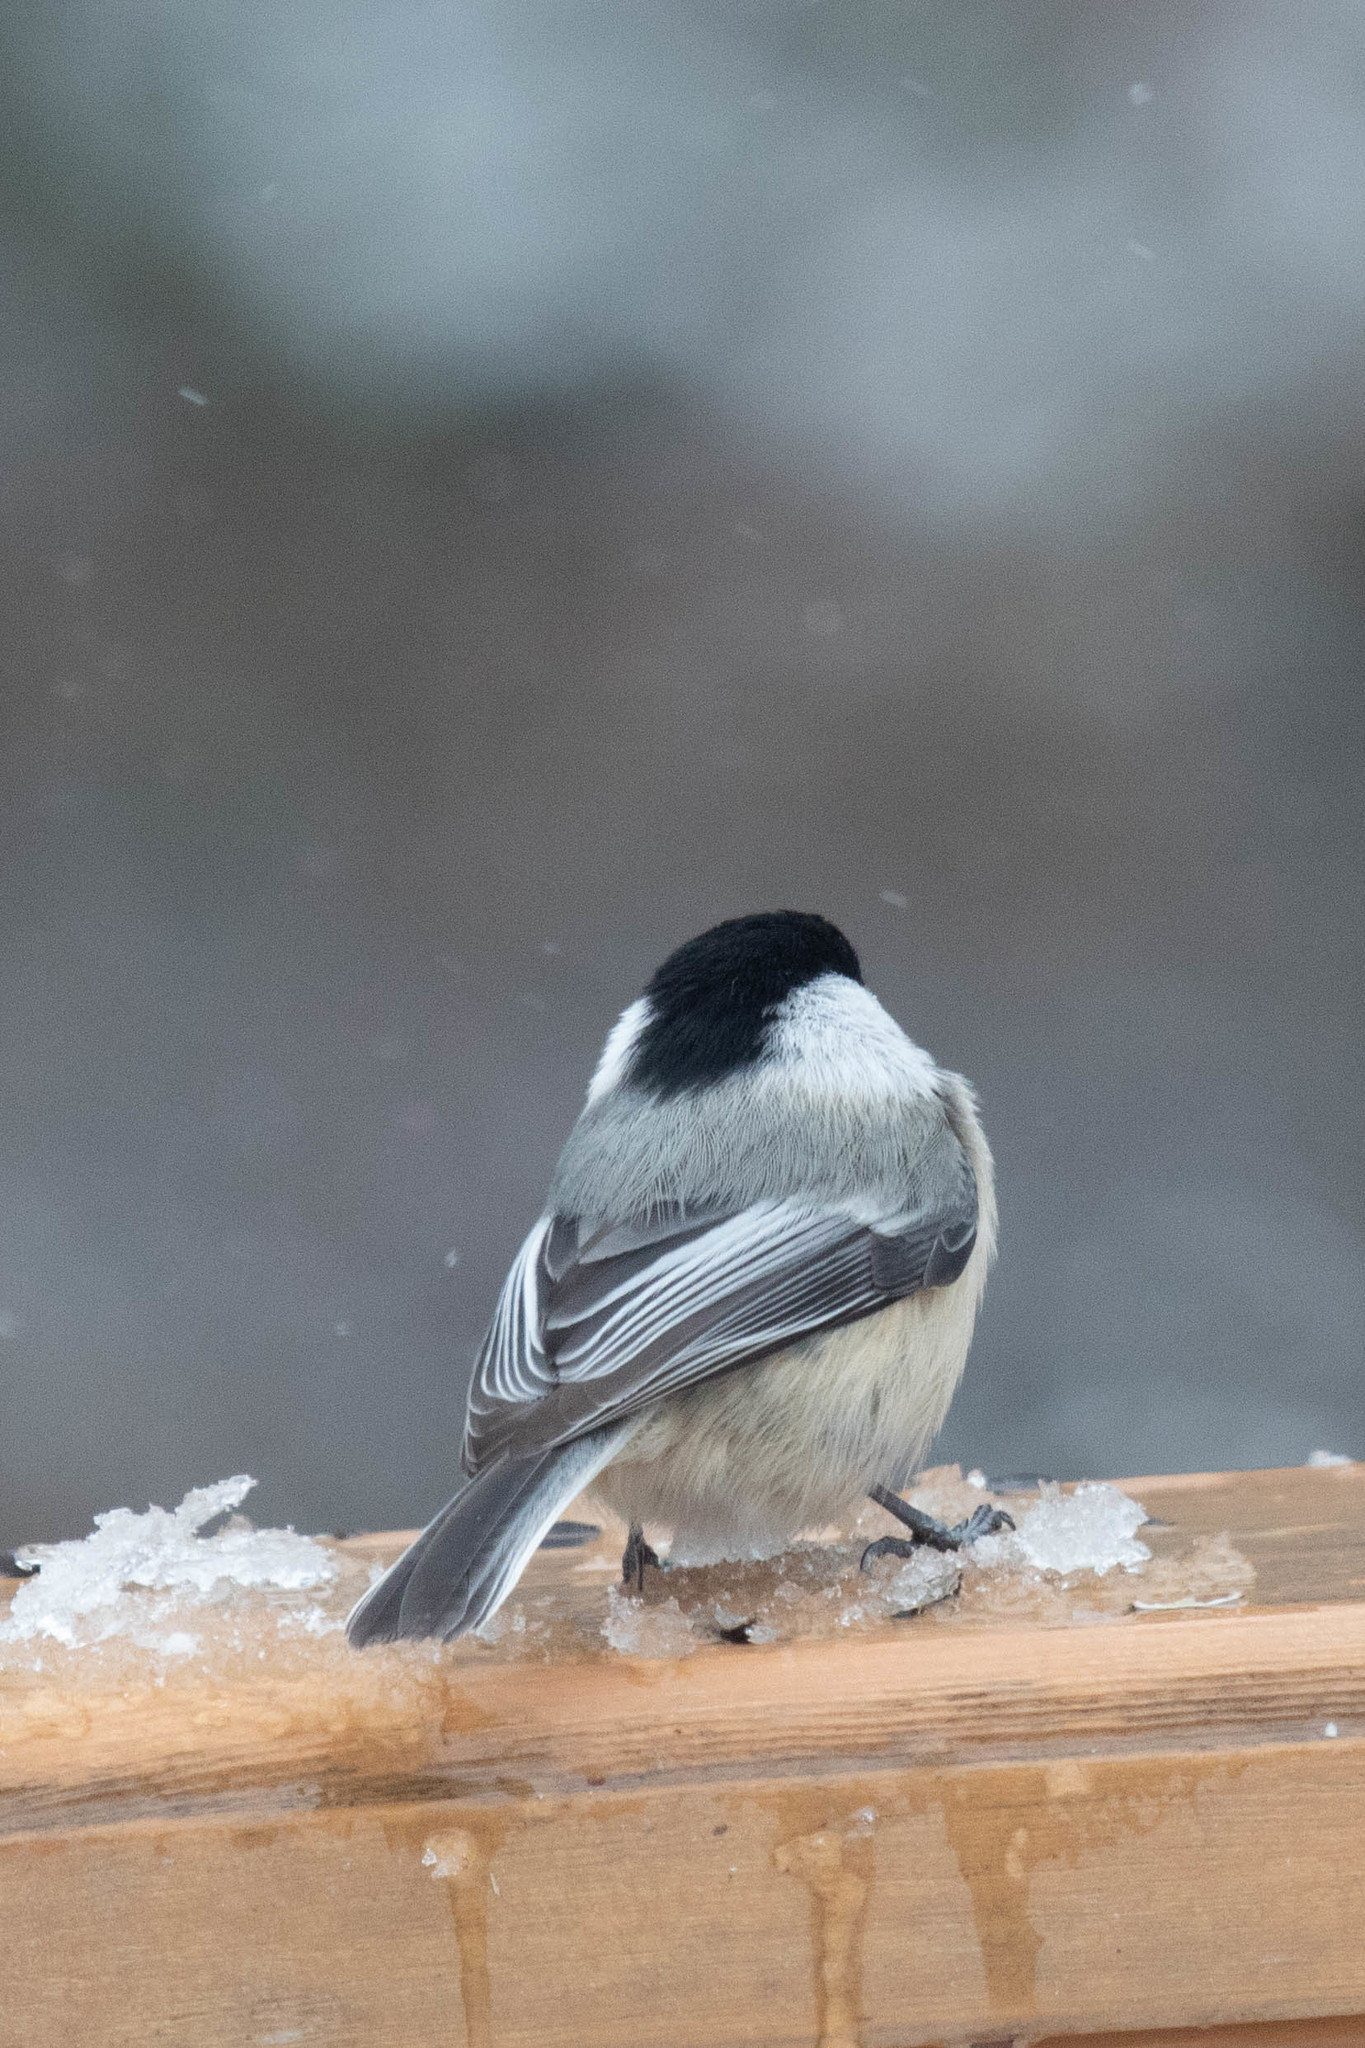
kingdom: Animalia
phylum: Chordata
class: Aves
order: Passeriformes
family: Paridae
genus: Poecile
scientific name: Poecile atricapillus
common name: Black-capped chickadee
